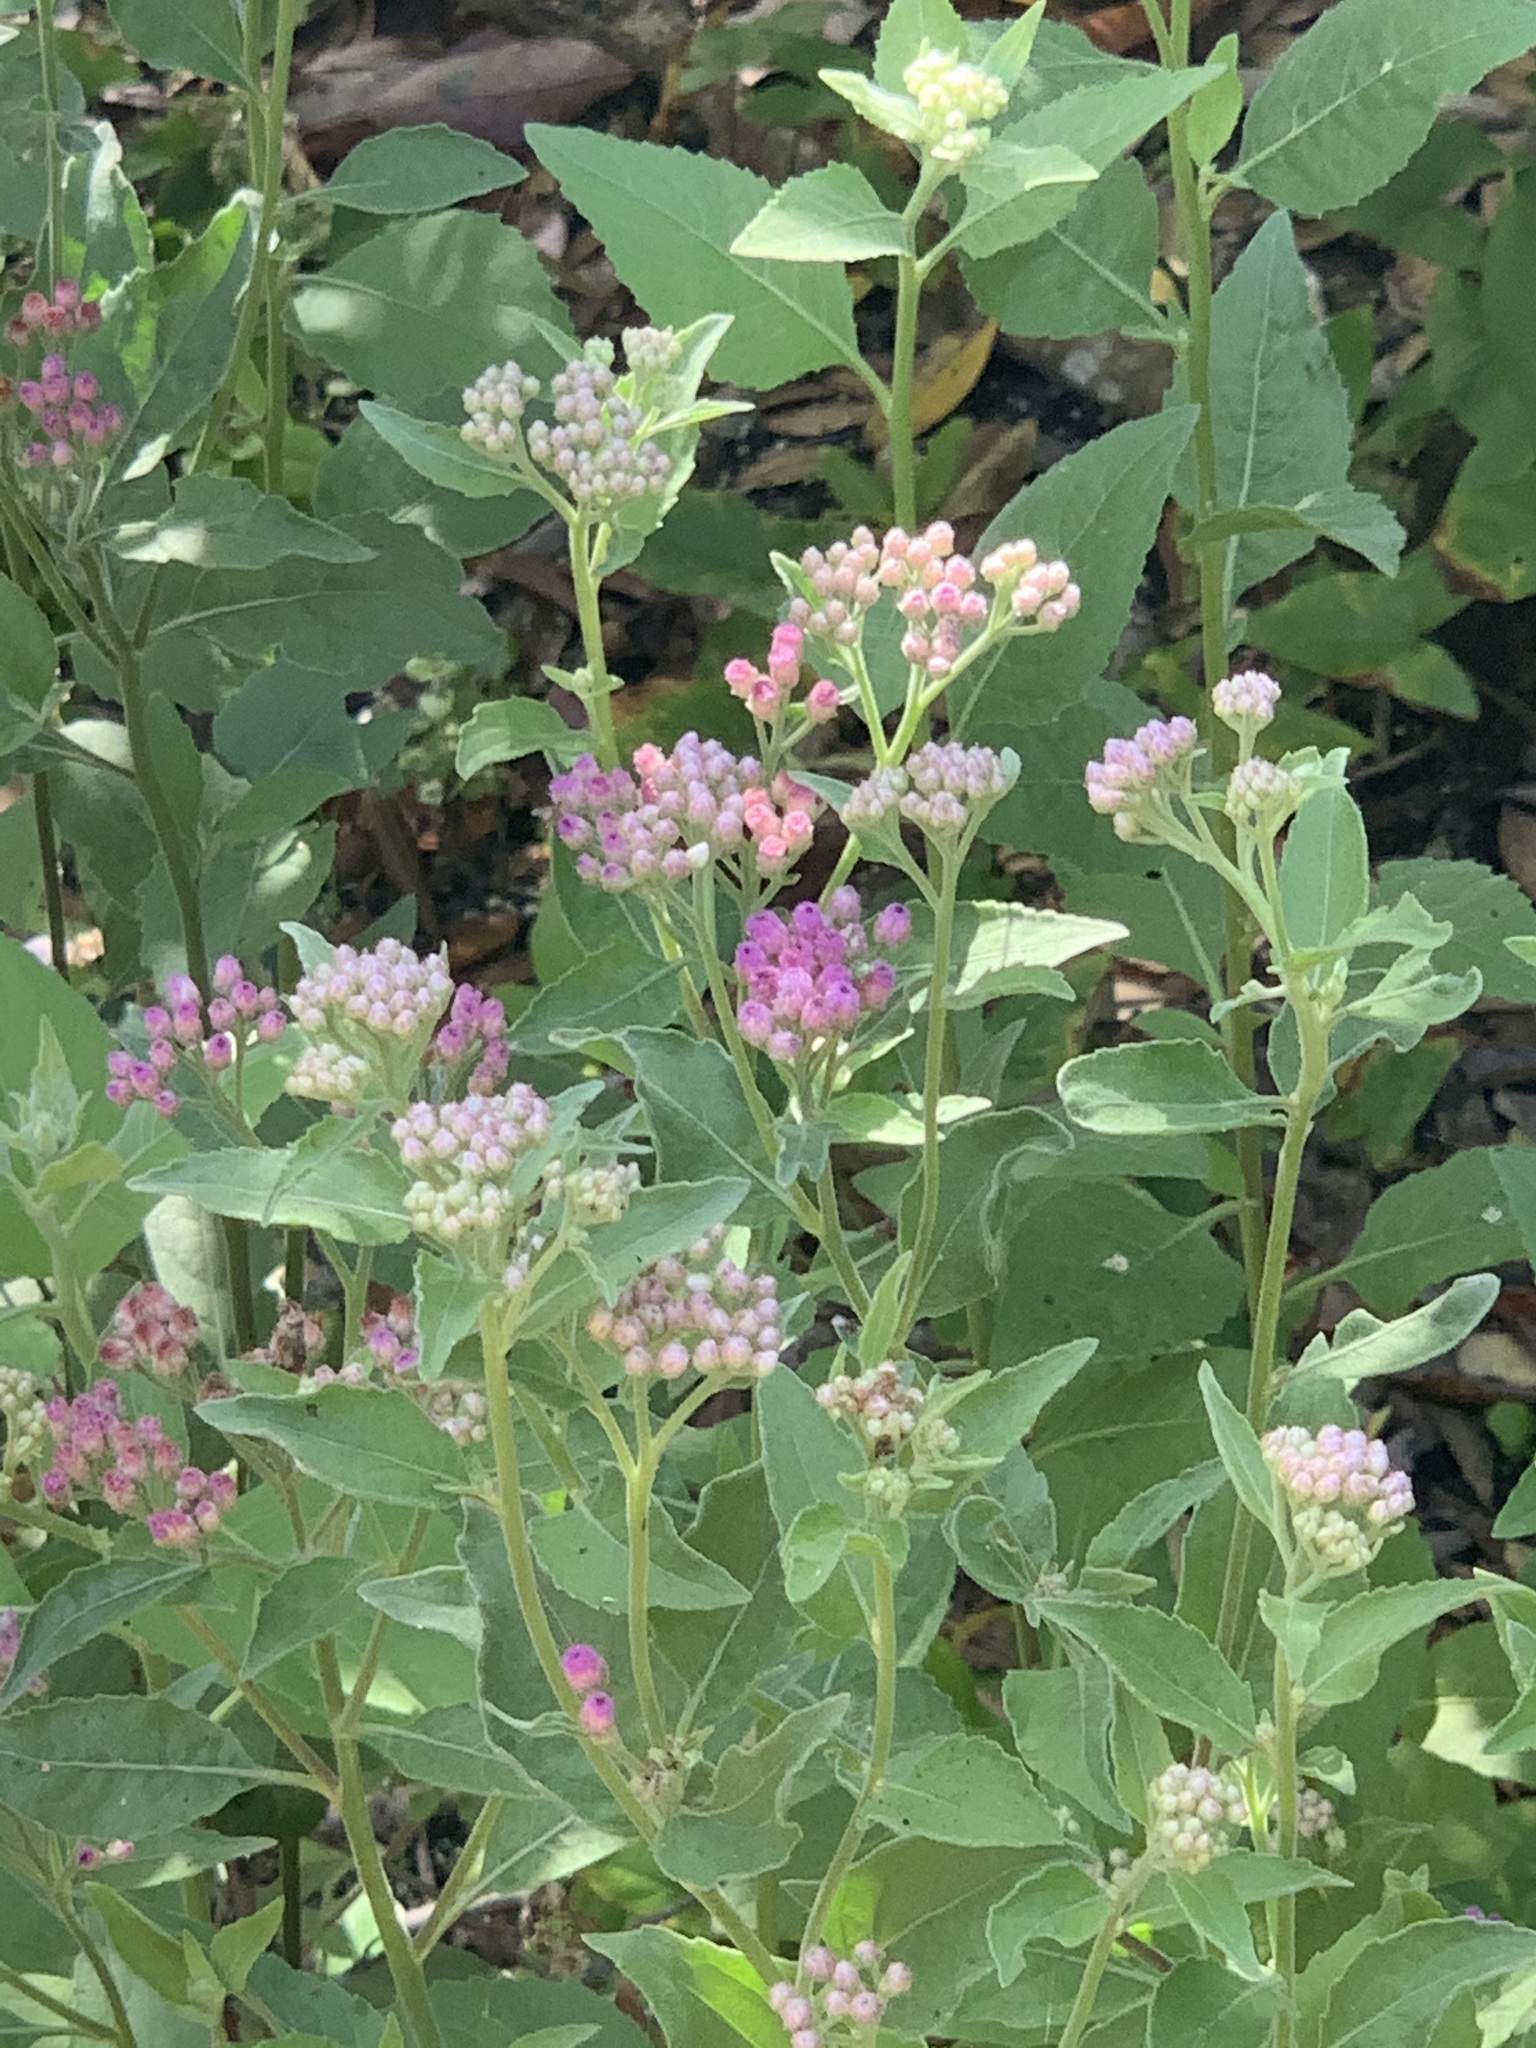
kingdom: Plantae
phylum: Tracheophyta
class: Magnoliopsida
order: Asterales
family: Asteraceae
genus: Pluchea
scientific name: Pluchea odorata
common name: Saltmarsh fleabane
